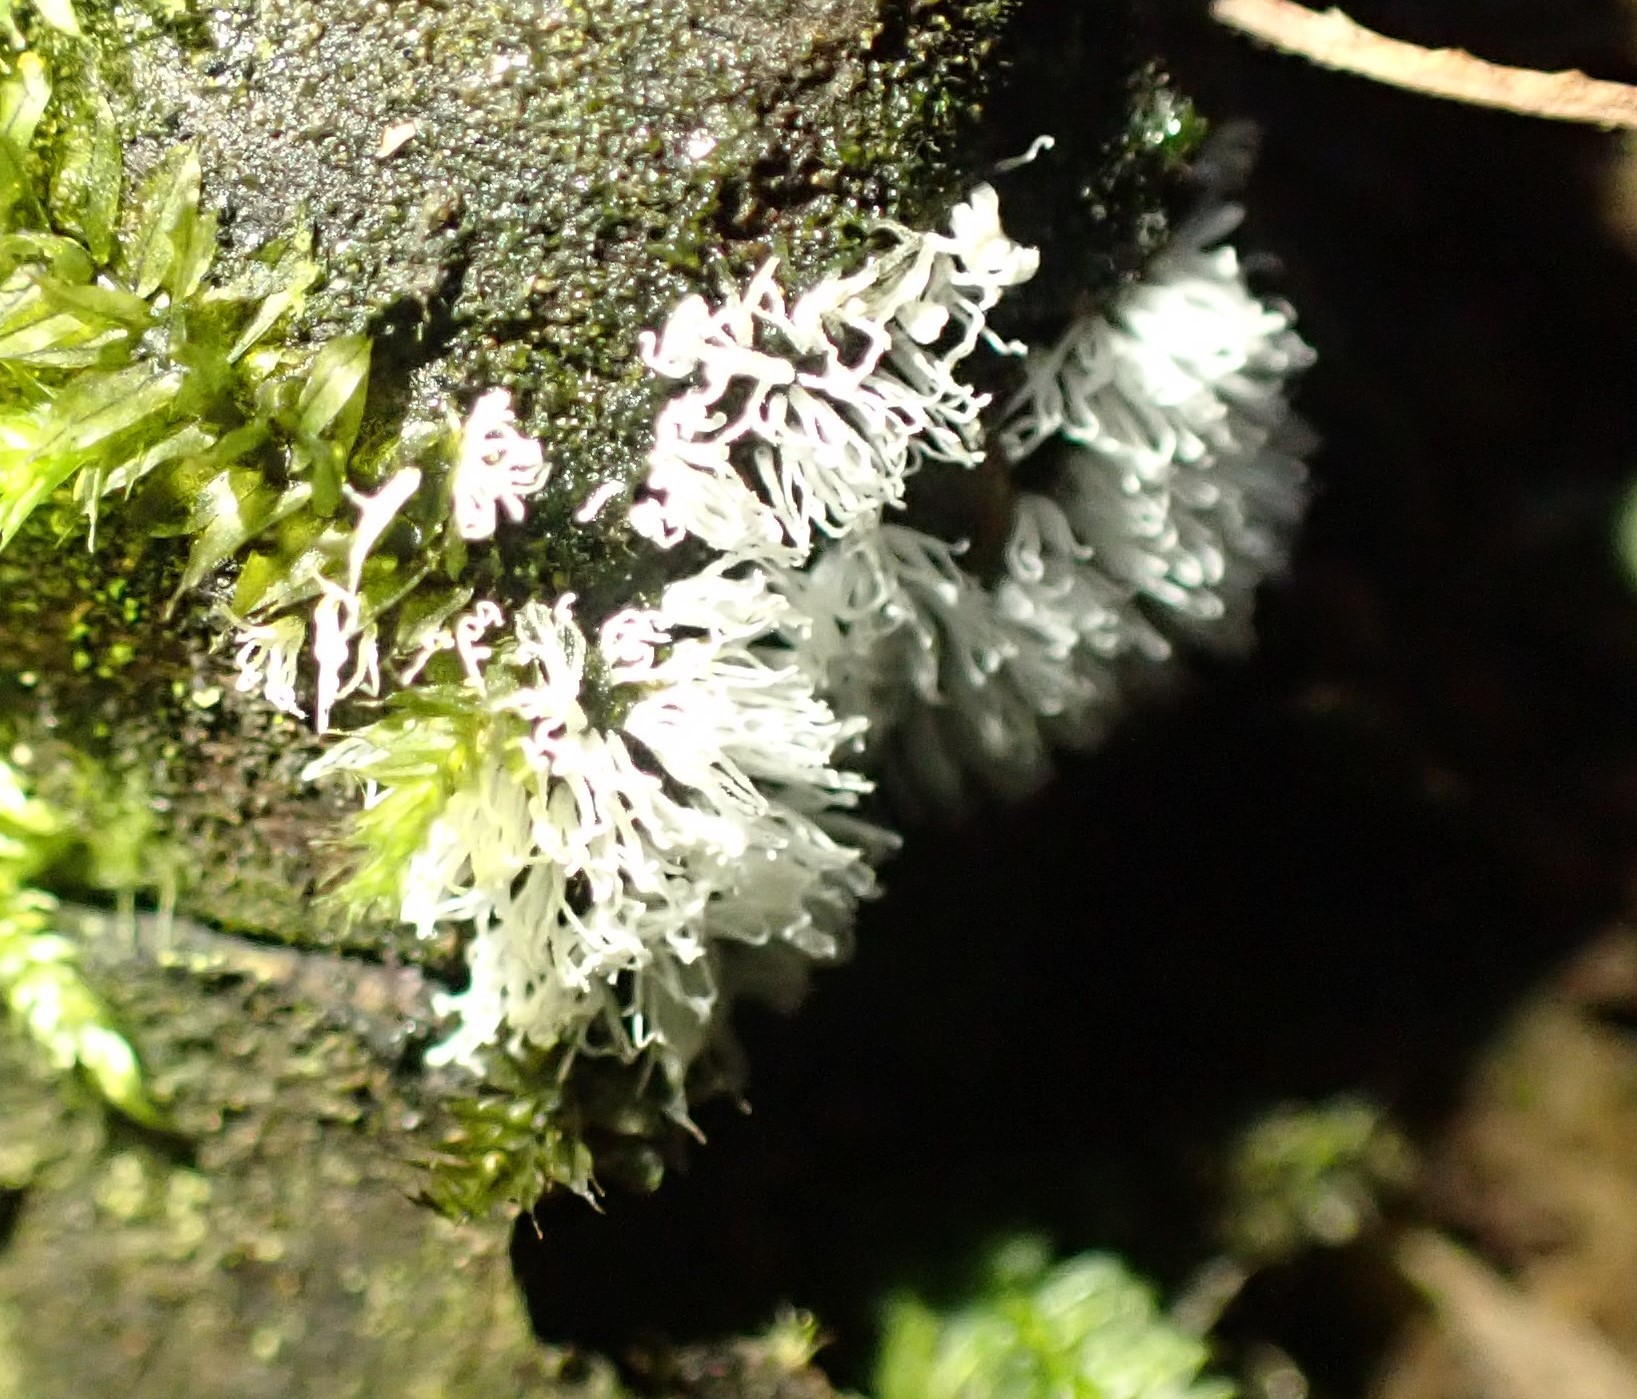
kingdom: Protozoa
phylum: Mycetozoa
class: Protosteliomycetes
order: Ceratiomyxales
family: Ceratiomyxaceae
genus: Ceratiomyxa
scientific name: Ceratiomyxa fruticulosa
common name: Honeycomb coral slime mold
